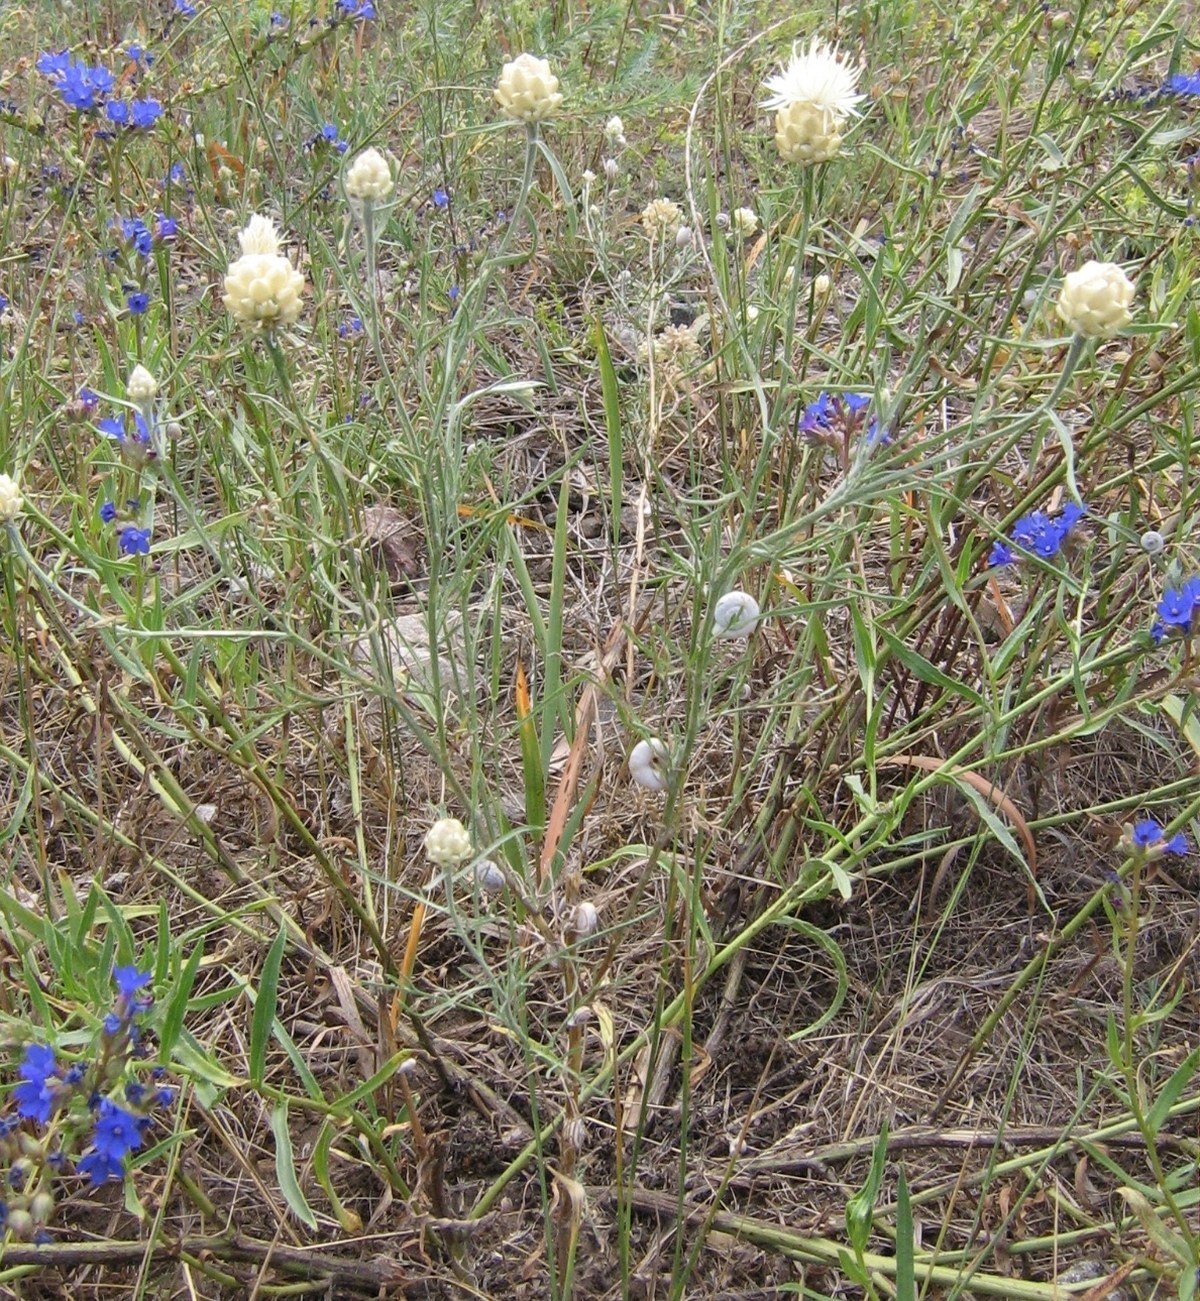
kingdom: Plantae
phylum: Tracheophyta
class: Magnoliopsida
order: Asterales
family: Asteraceae
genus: Centaurea
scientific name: Centaurea splendens
